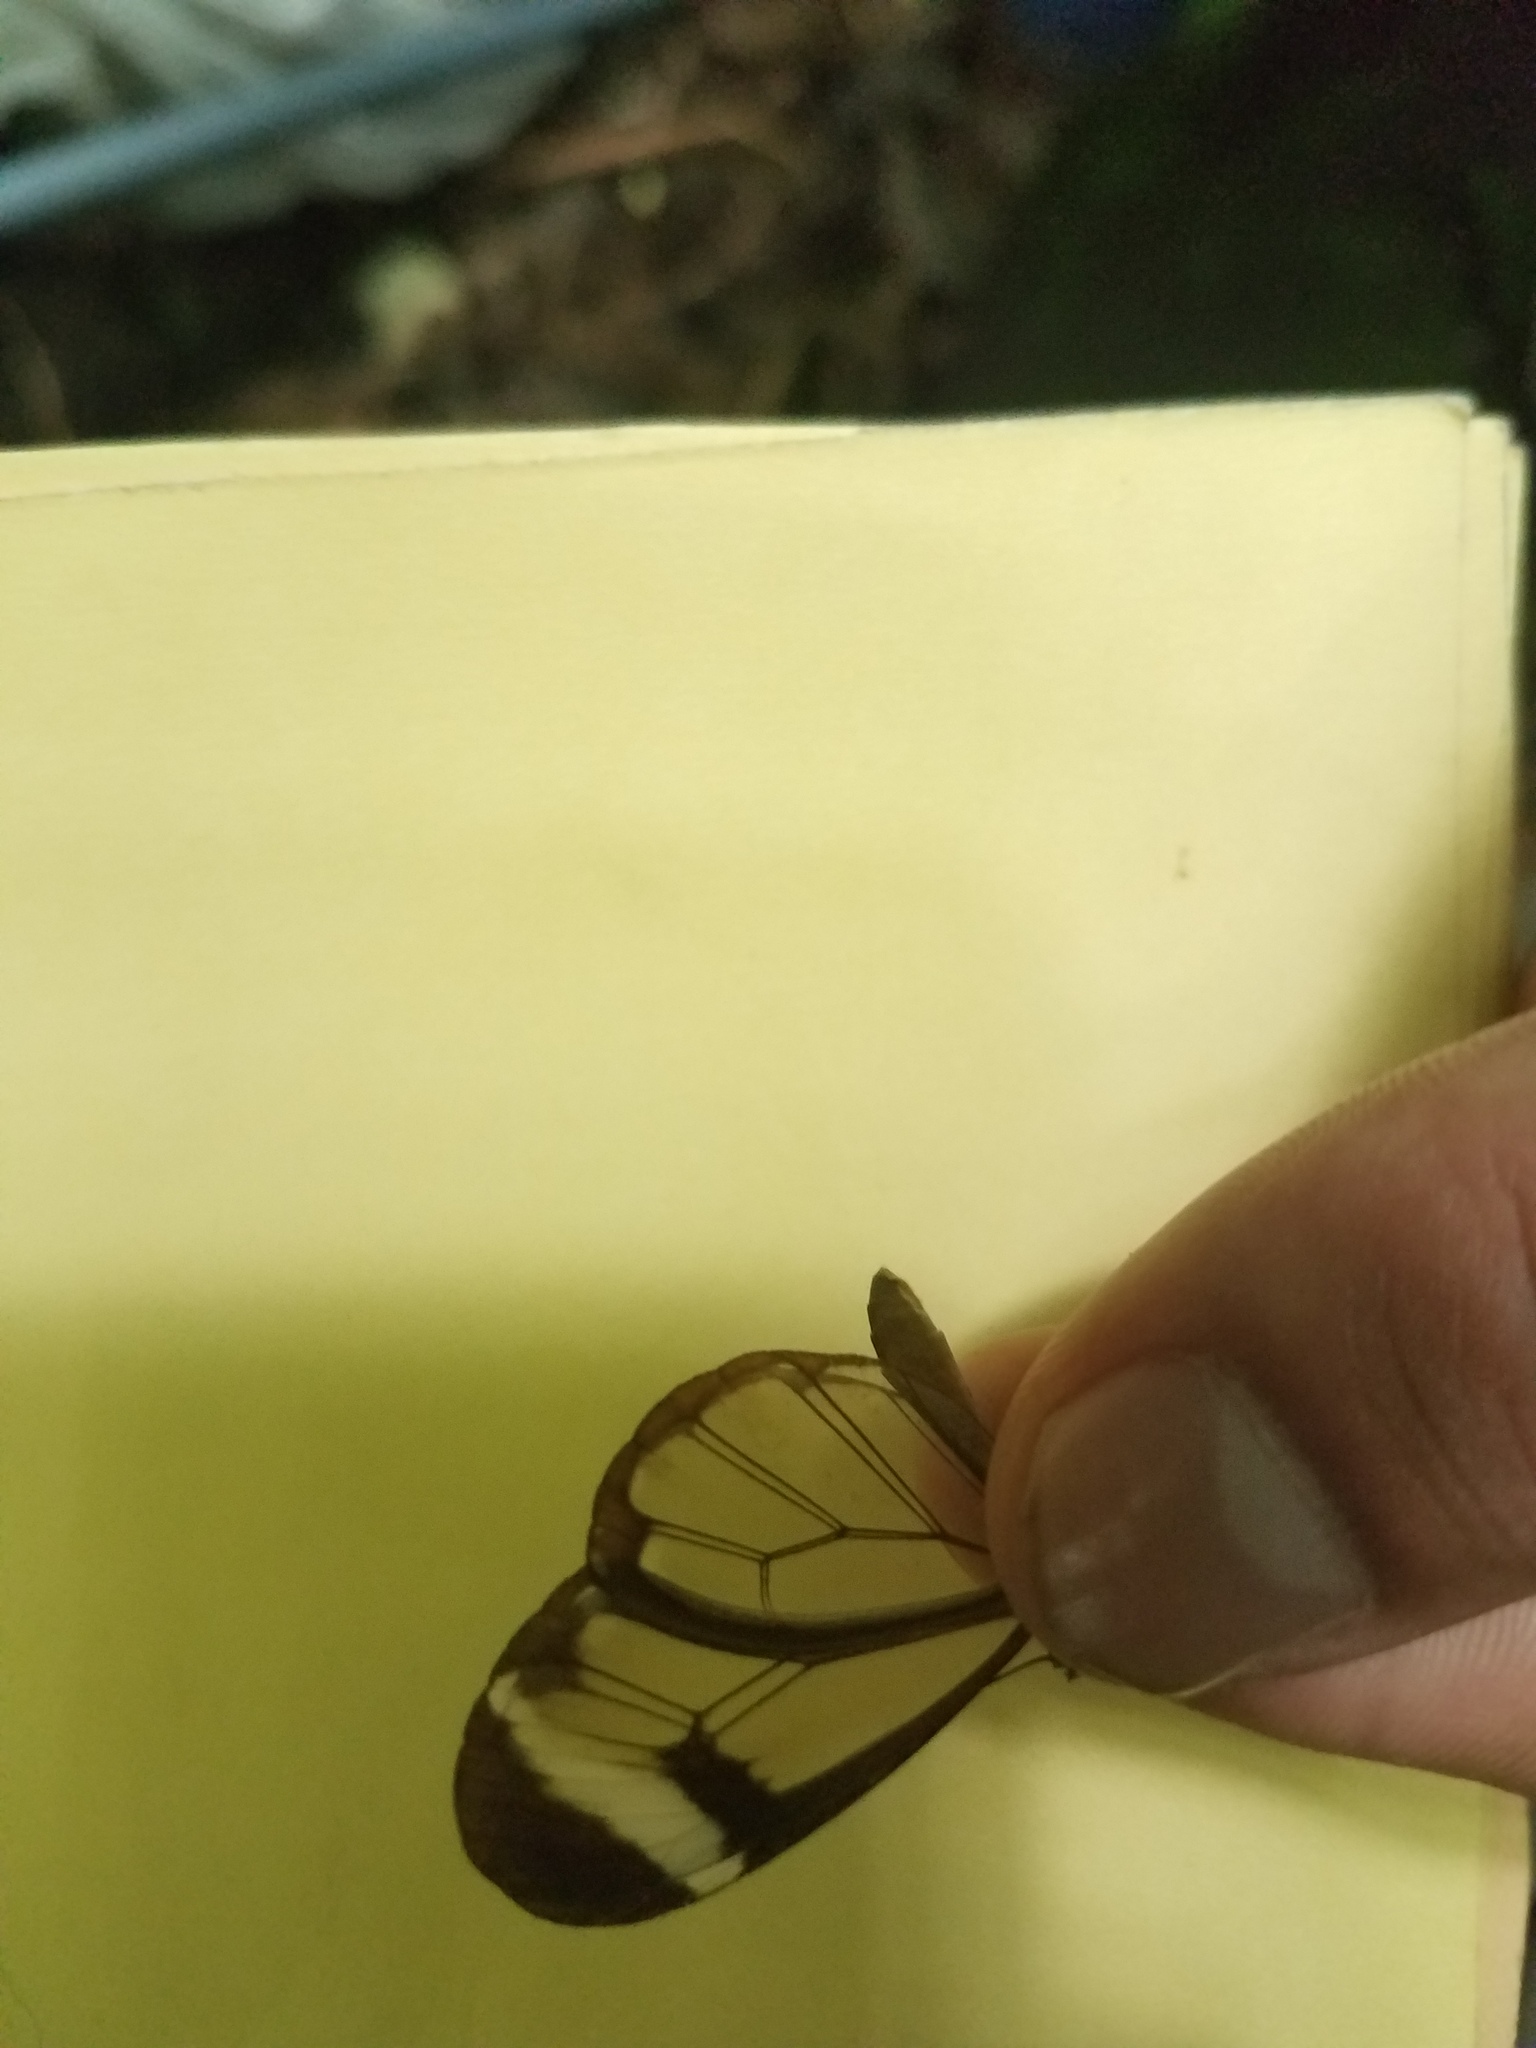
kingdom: Animalia
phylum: Arthropoda
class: Insecta
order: Lepidoptera
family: Nymphalidae
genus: Greta
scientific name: Greta morgane
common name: Thick-tipped greta
